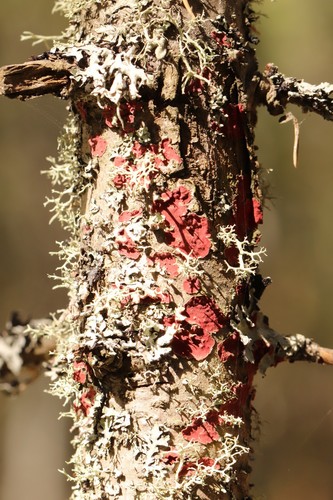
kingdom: Fungi
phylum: Basidiomycota
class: Agaricomycetes
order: Hymenochaetales
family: Hymenochaetaceae
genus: Hymenochaete
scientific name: Hymenochaete cruenta
